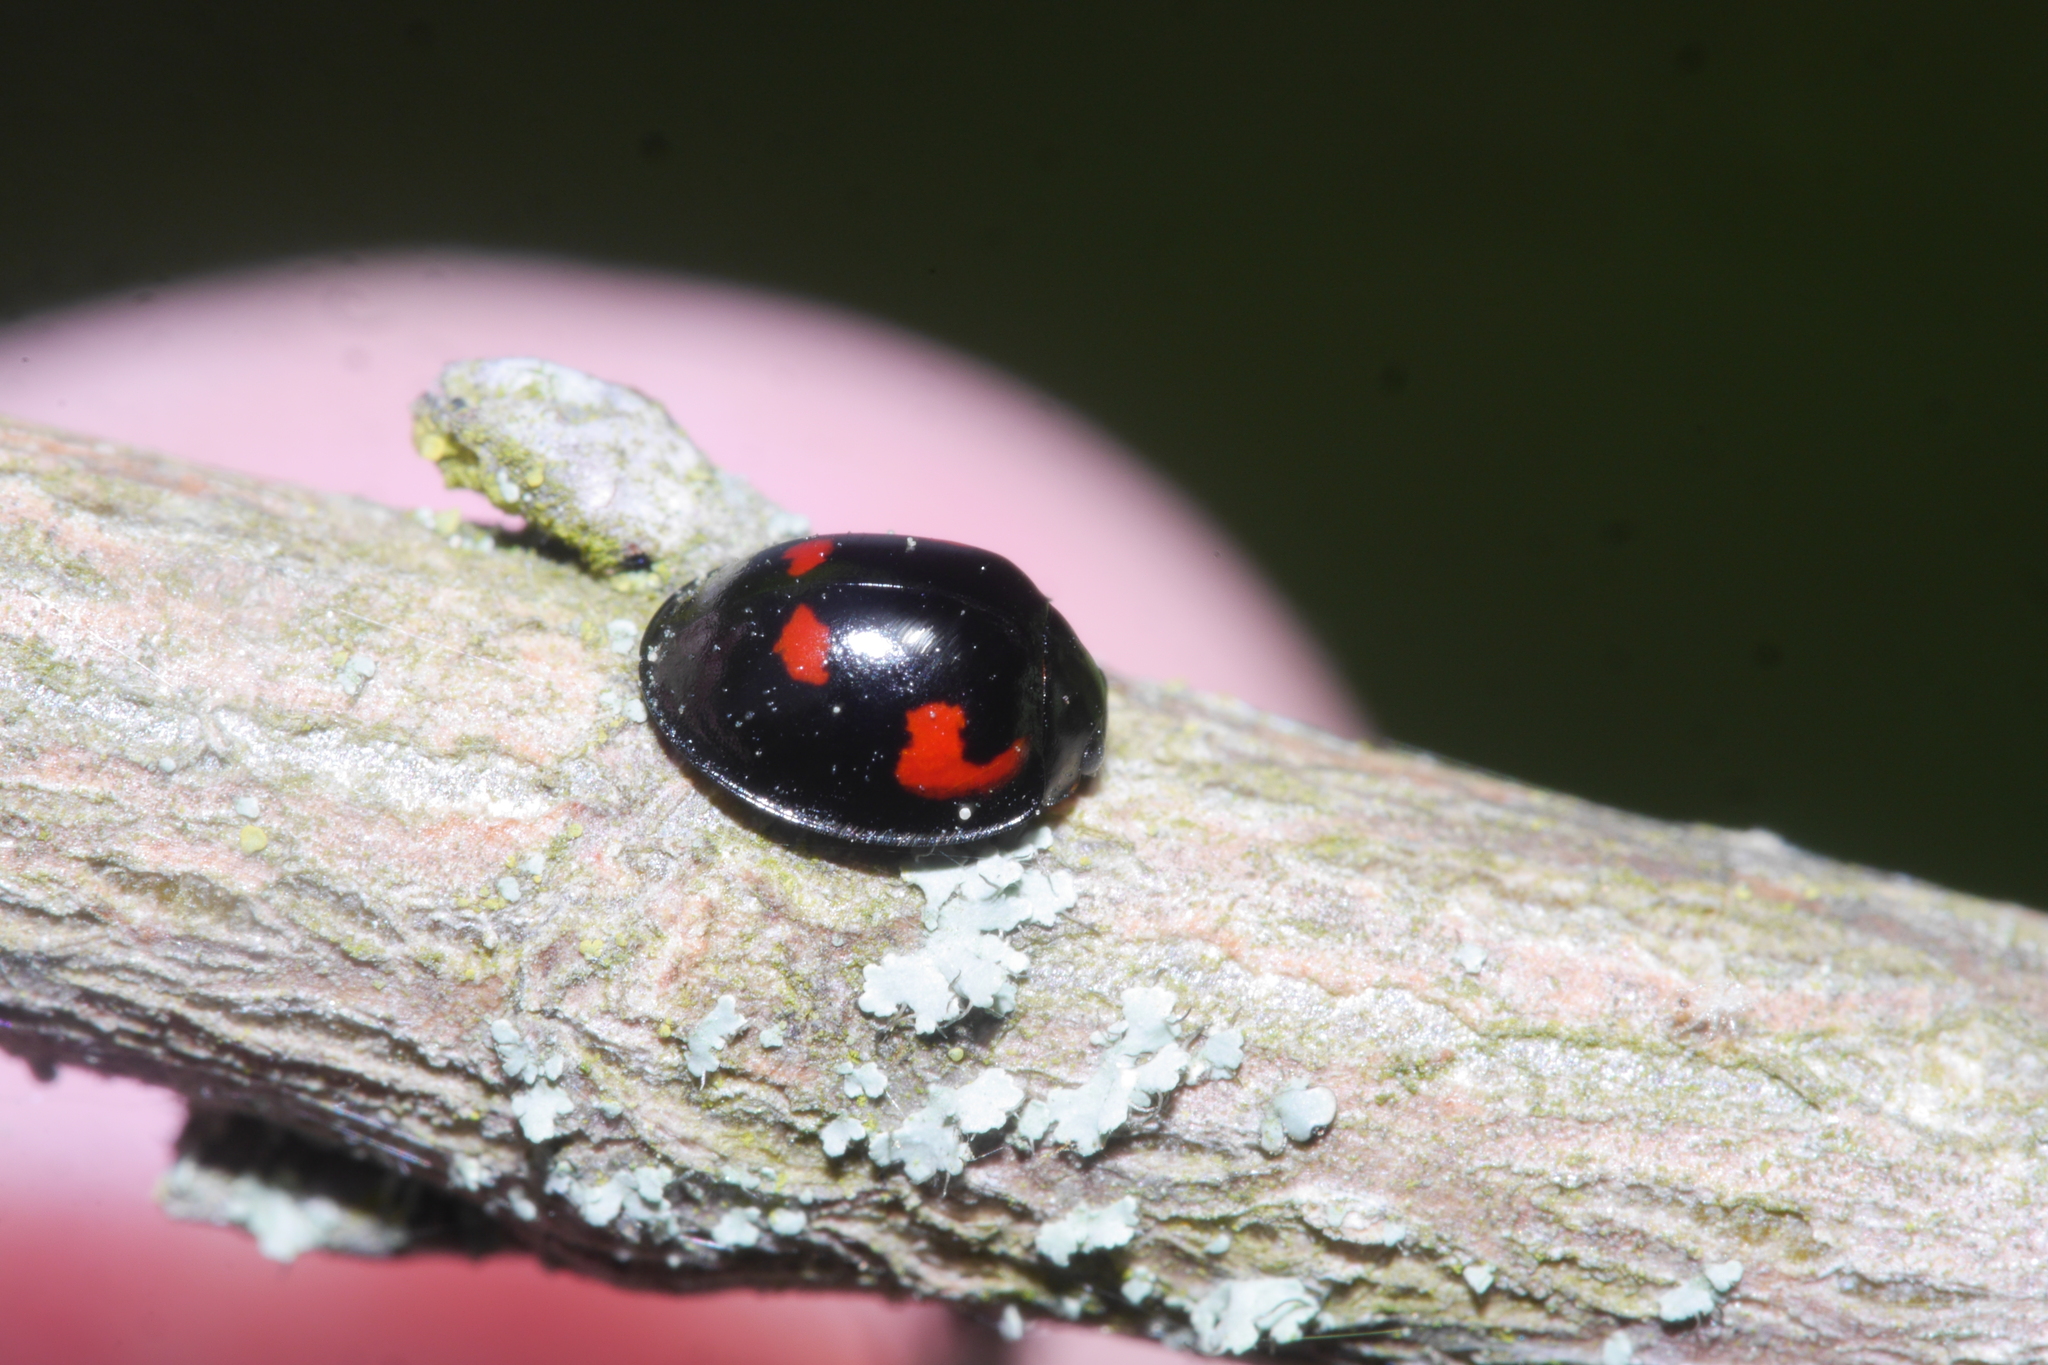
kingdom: Animalia
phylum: Arthropoda
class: Insecta
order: Coleoptera
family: Coccinellidae
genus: Brumus
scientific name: Brumus quadripustulatus
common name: Ladybird beetle
